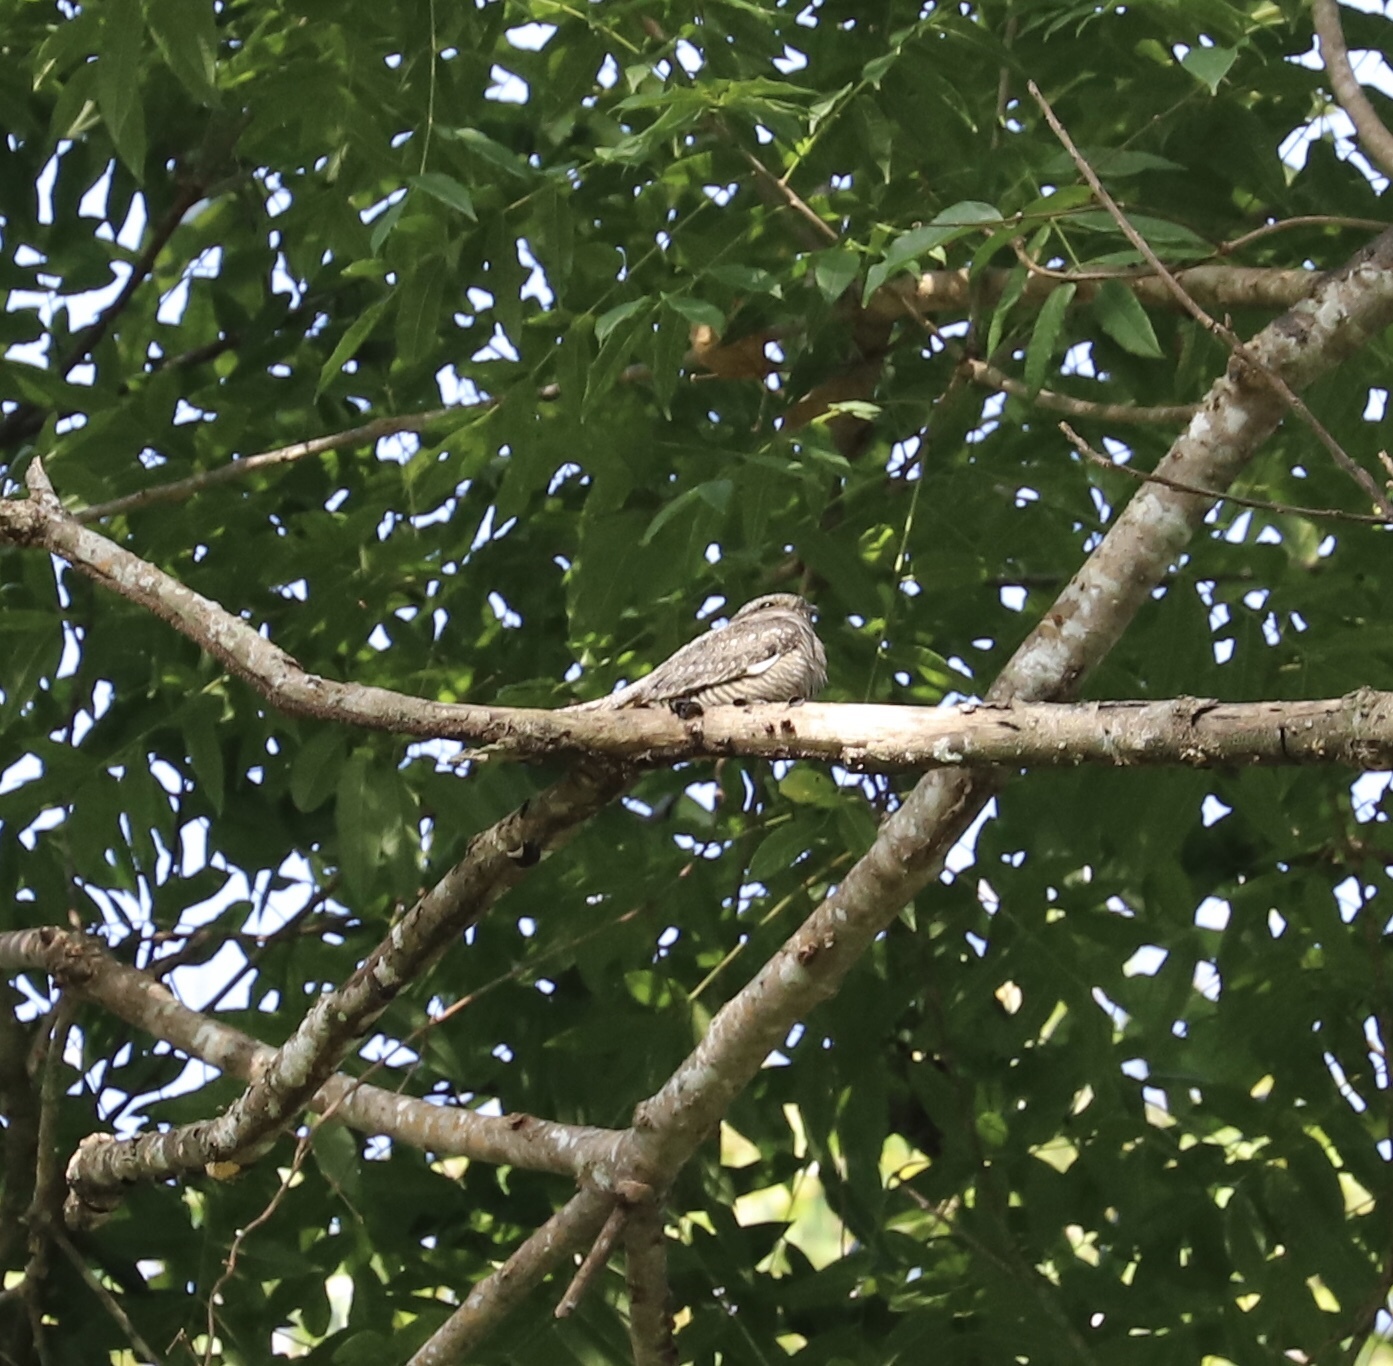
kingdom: Animalia
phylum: Chordata
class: Aves
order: Caprimulgiformes
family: Caprimulgidae
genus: Chordeiles
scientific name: Chordeiles acutipennis
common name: Lesser nighthawk
